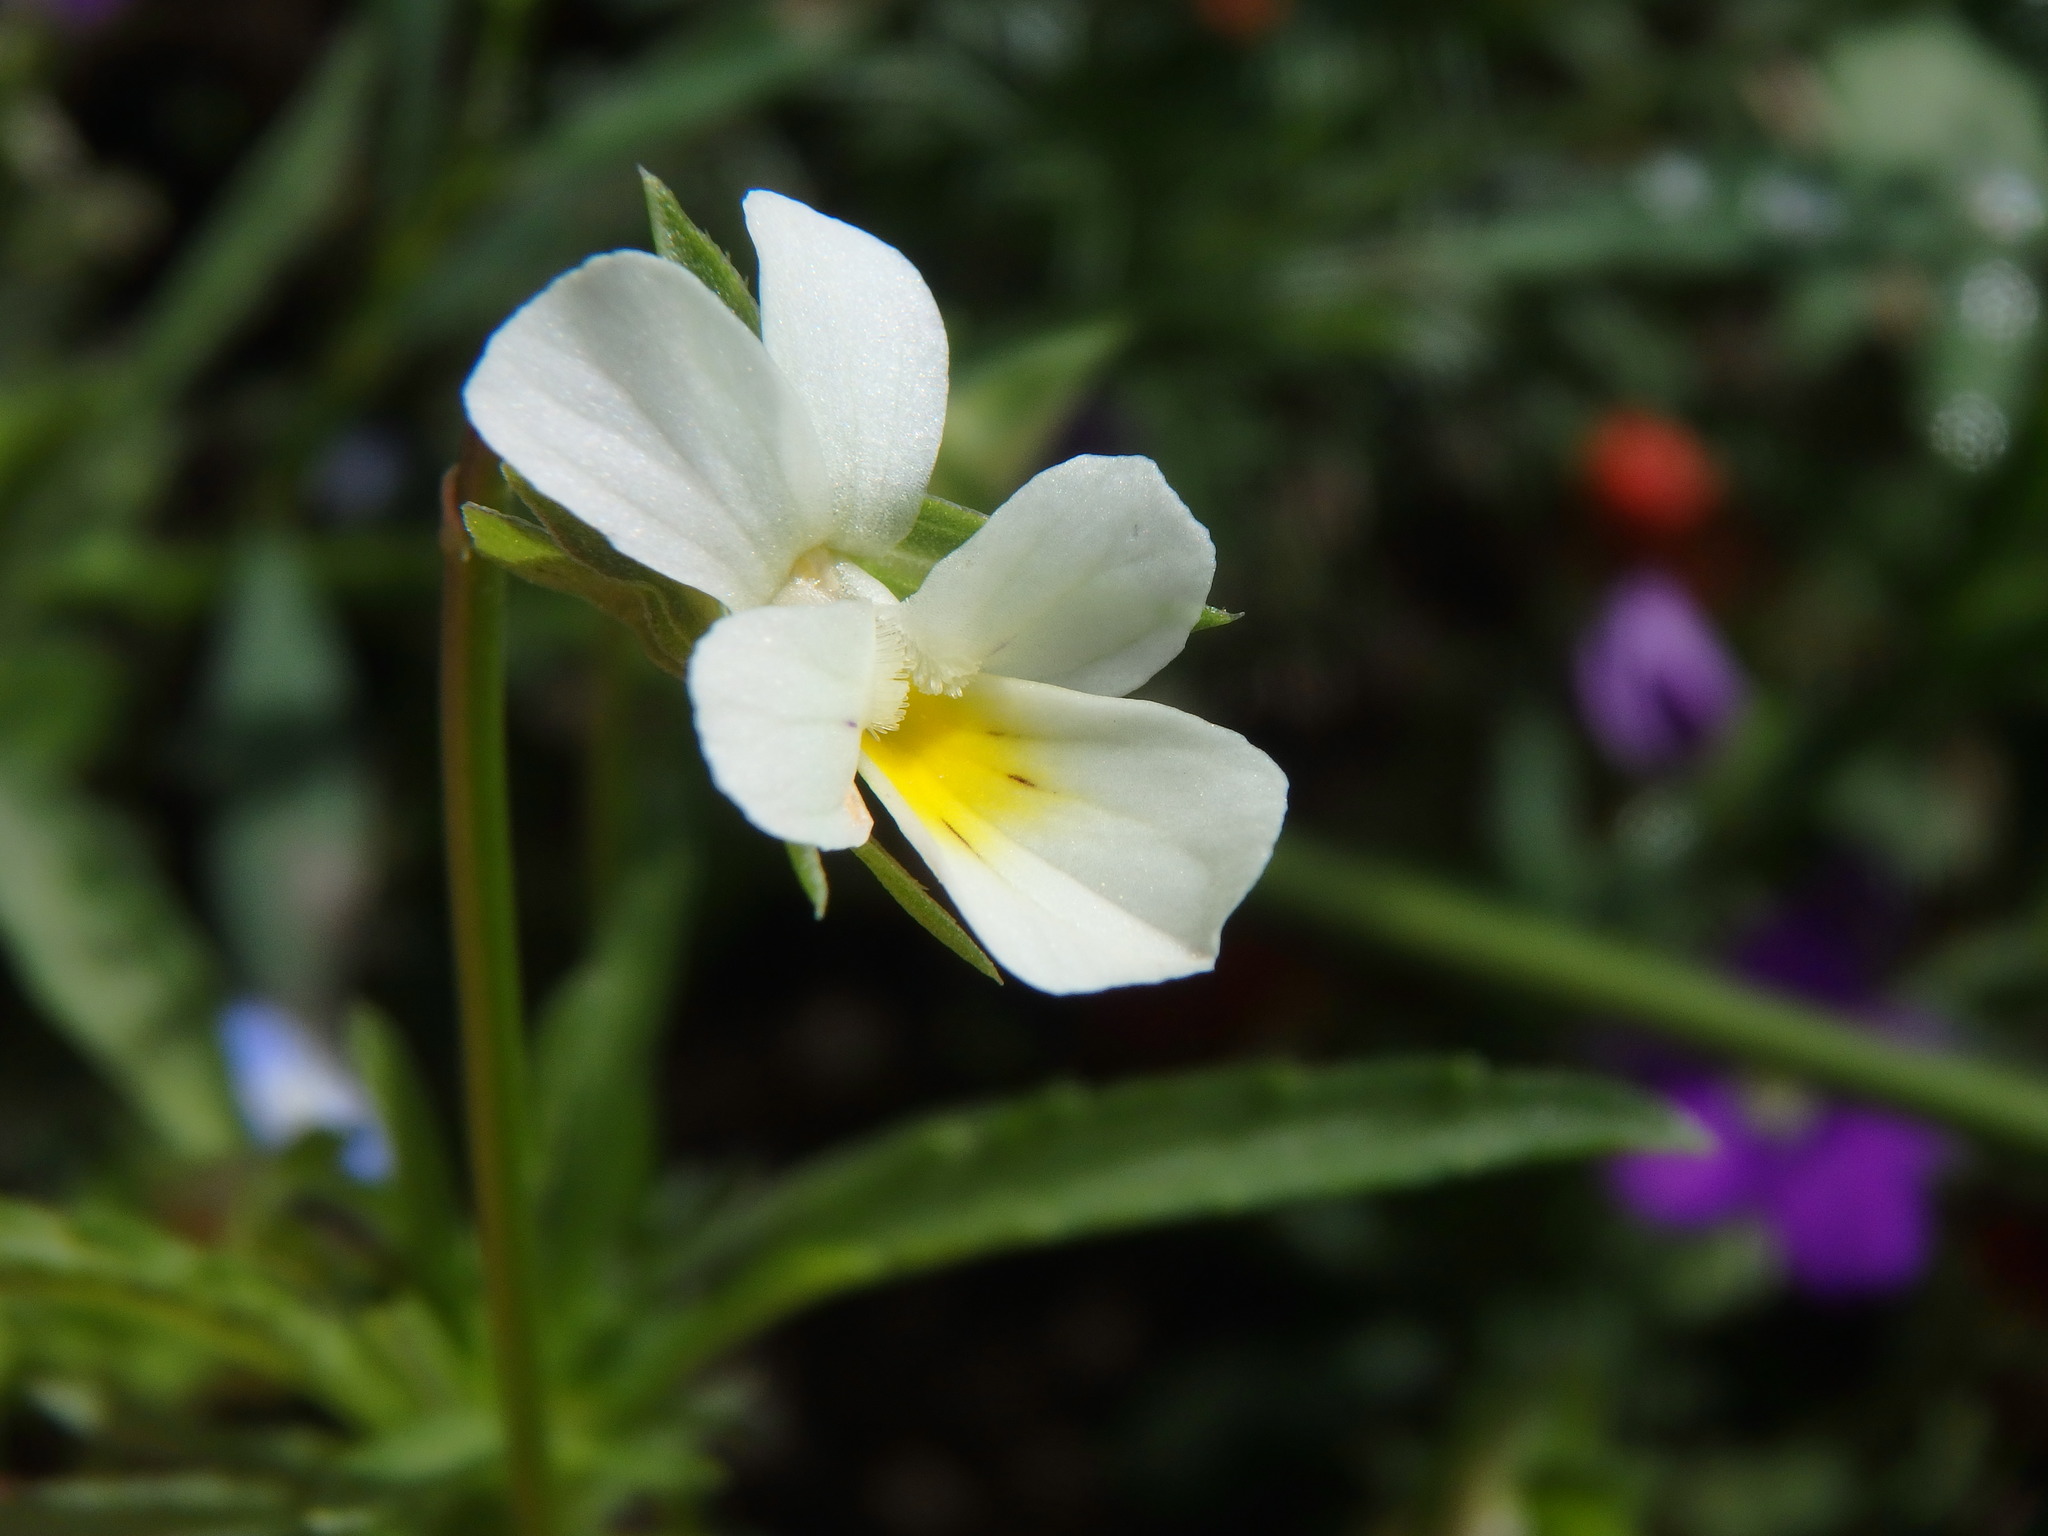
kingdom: Plantae
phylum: Tracheophyta
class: Magnoliopsida
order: Malpighiales
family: Violaceae
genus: Viola
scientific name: Viola arvensis
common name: Field pansy
